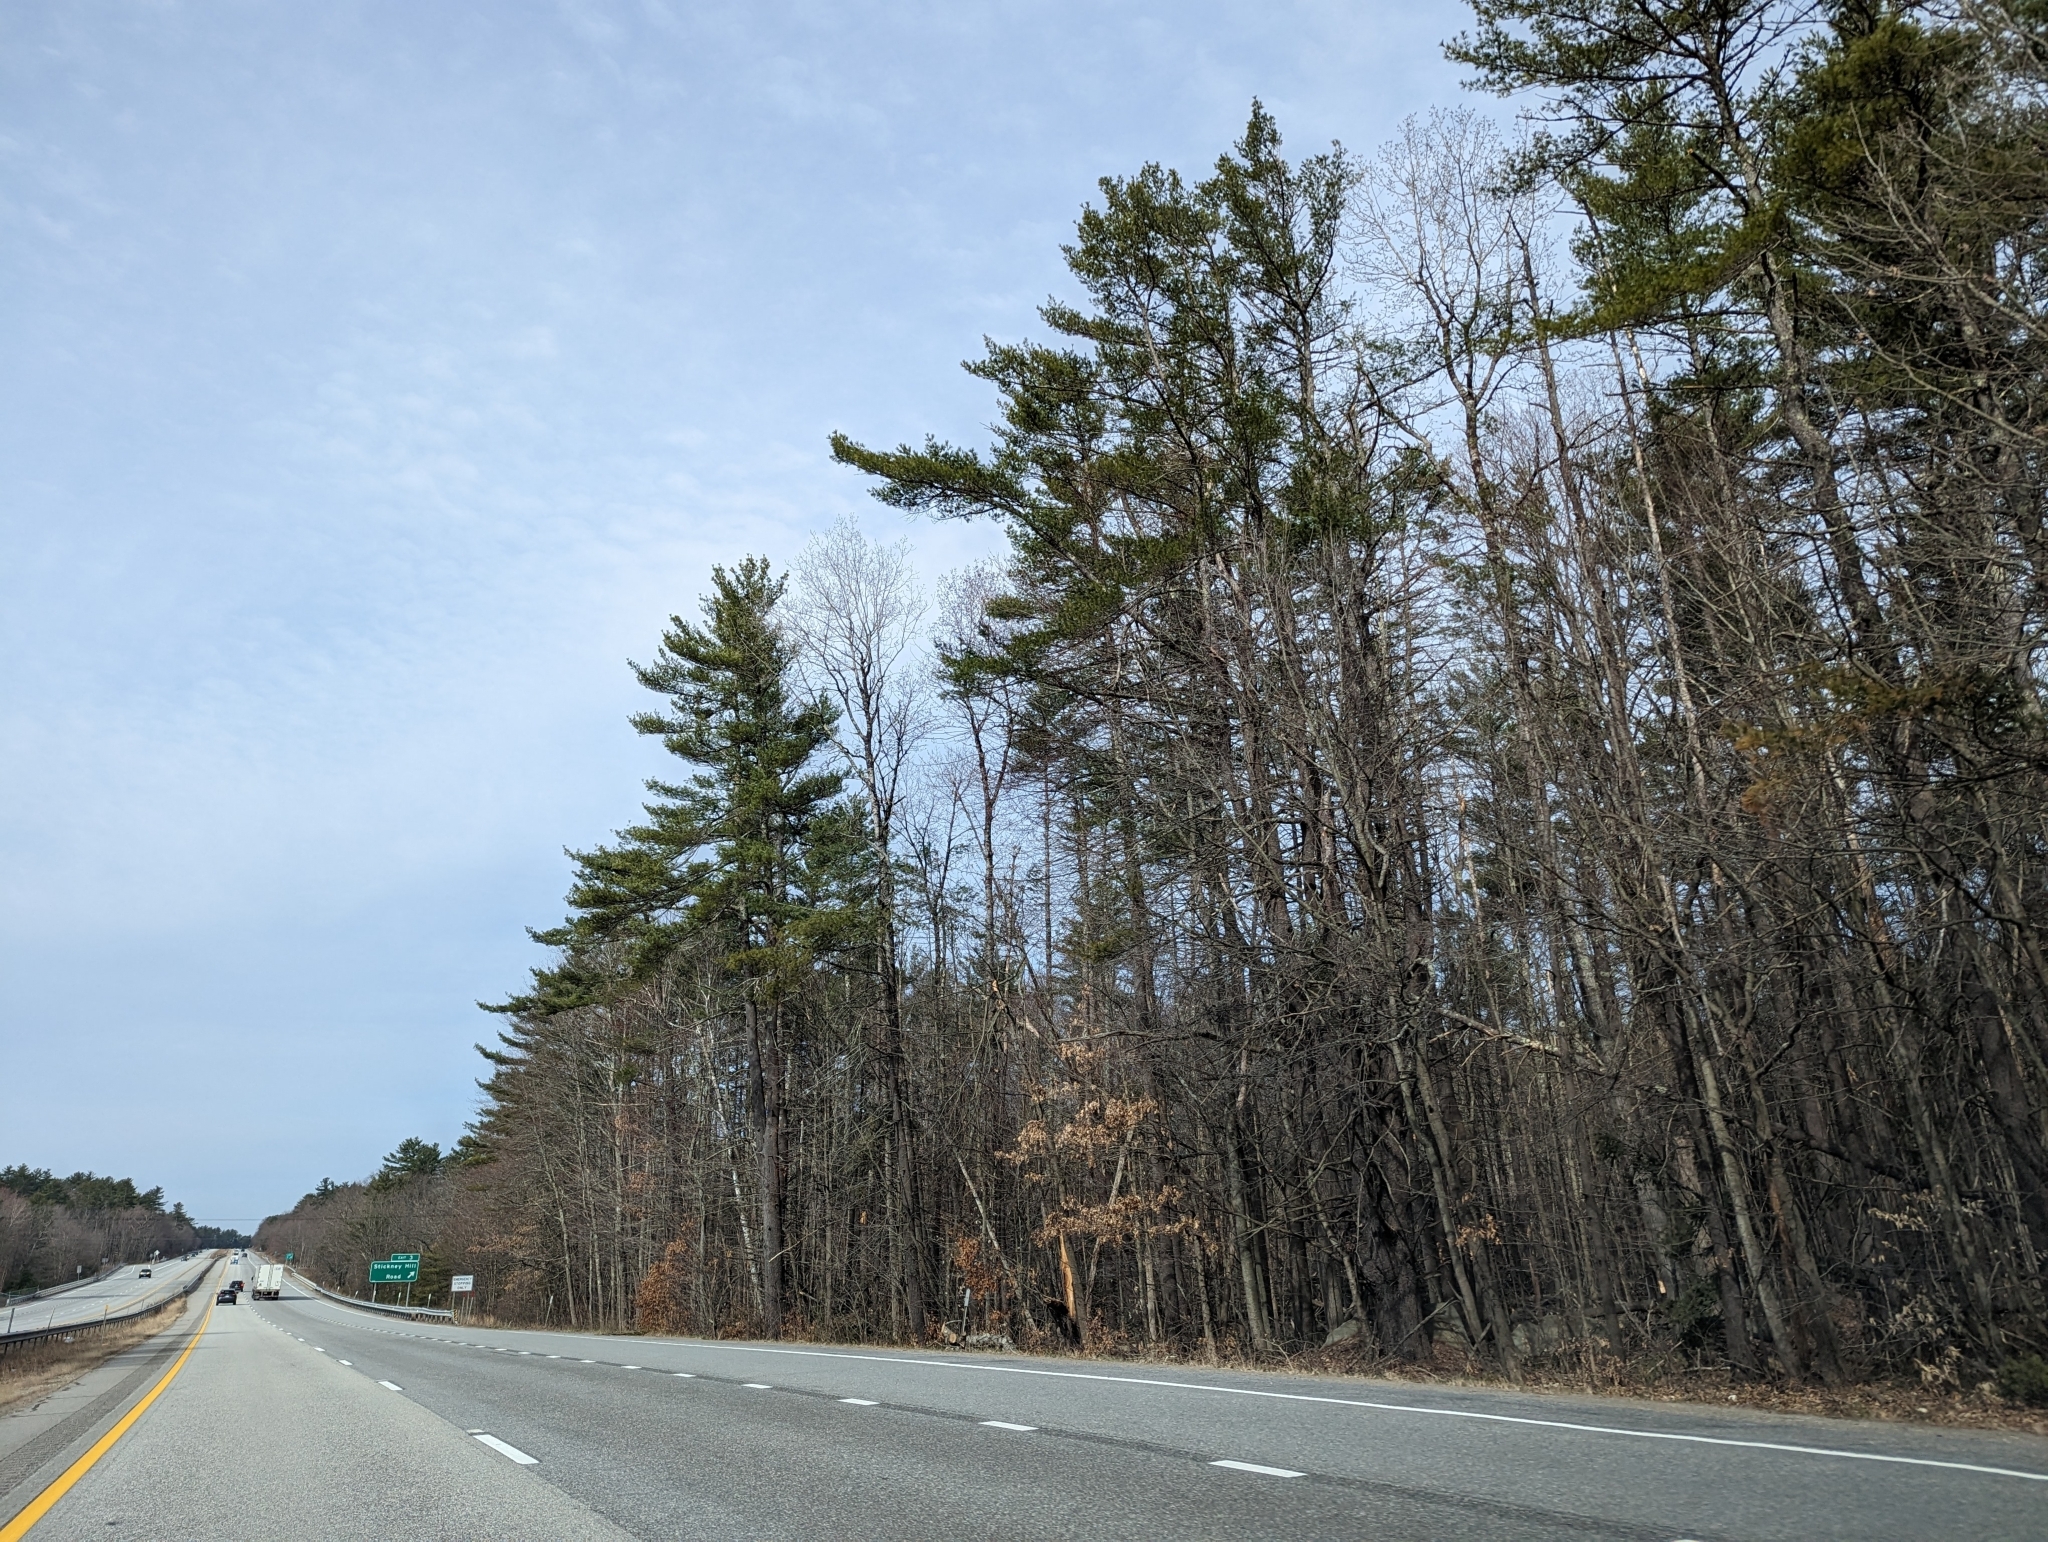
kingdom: Plantae
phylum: Tracheophyta
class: Pinopsida
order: Pinales
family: Pinaceae
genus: Pinus
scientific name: Pinus strobus
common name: Weymouth pine
